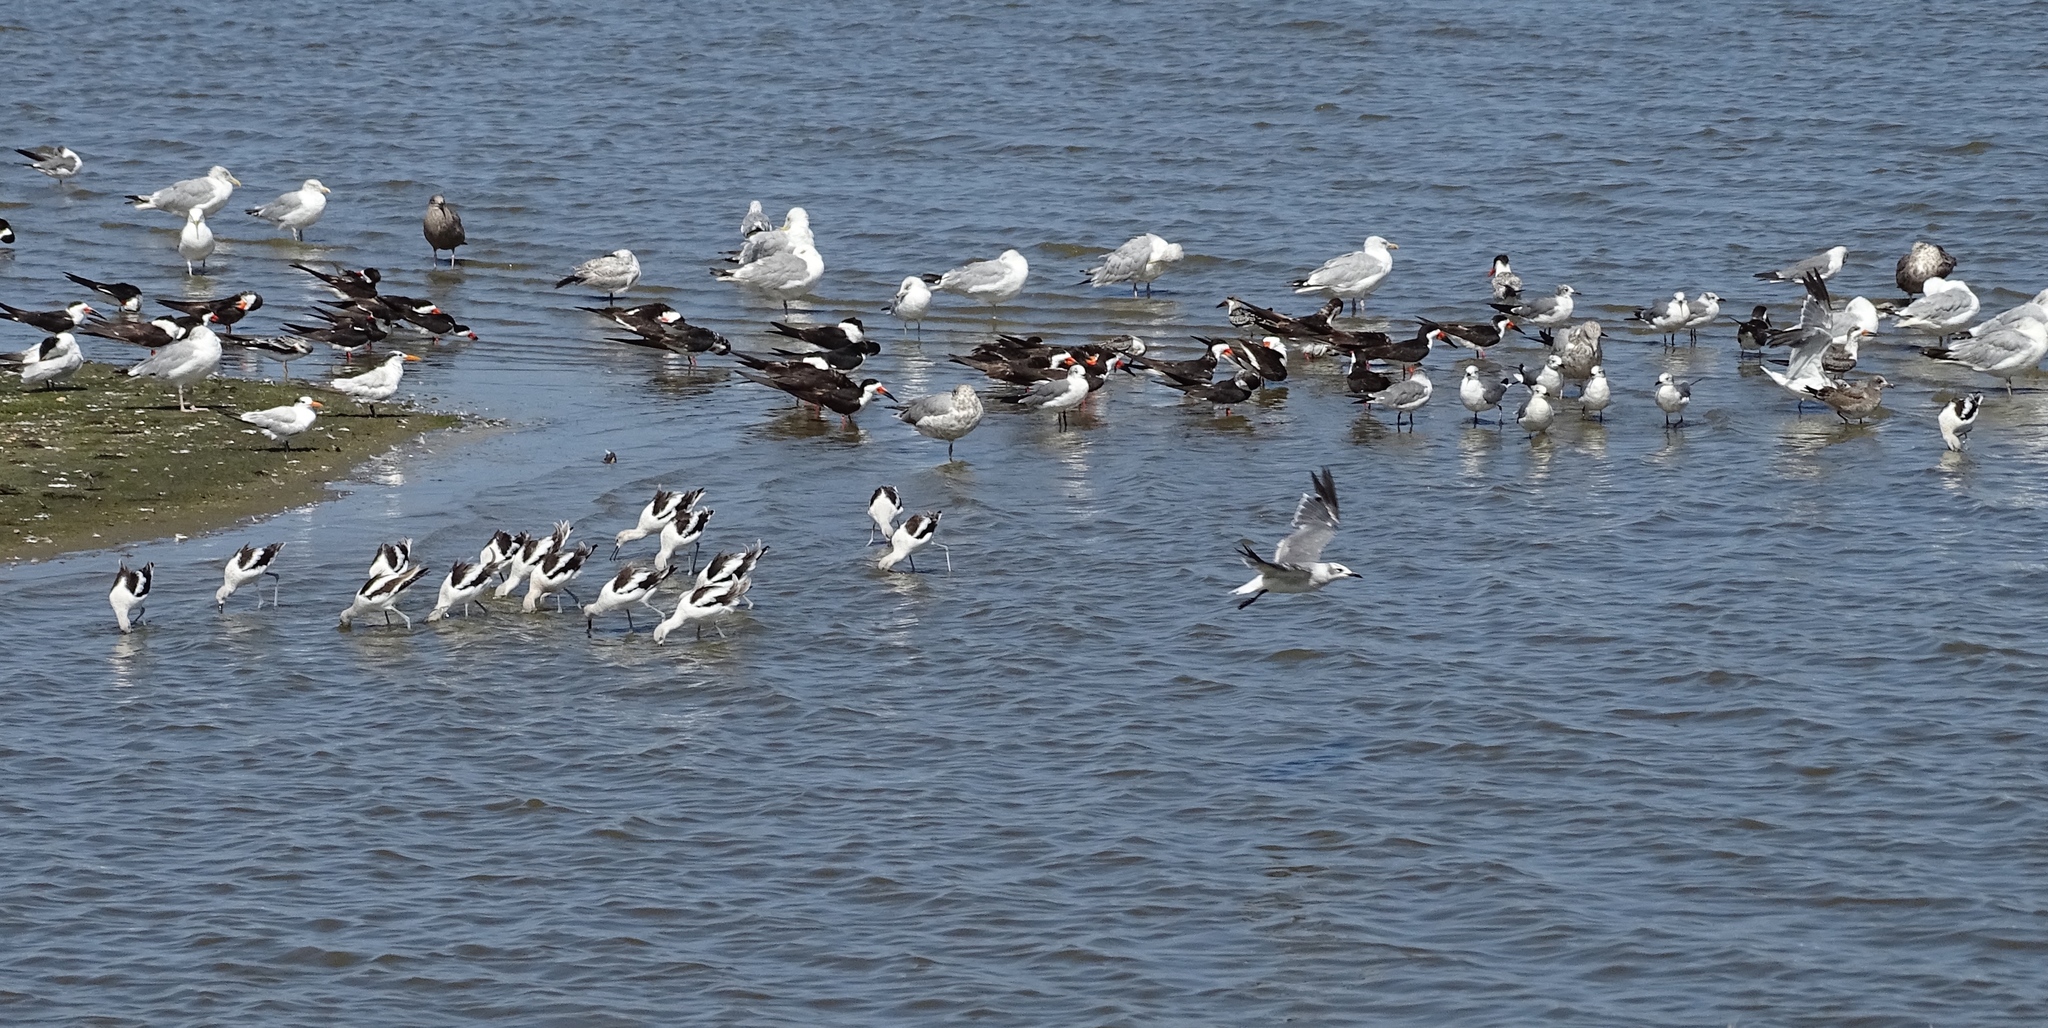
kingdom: Animalia
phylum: Chordata
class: Aves
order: Charadriiformes
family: Recurvirostridae
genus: Recurvirostra
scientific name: Recurvirostra americana
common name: American avocet
